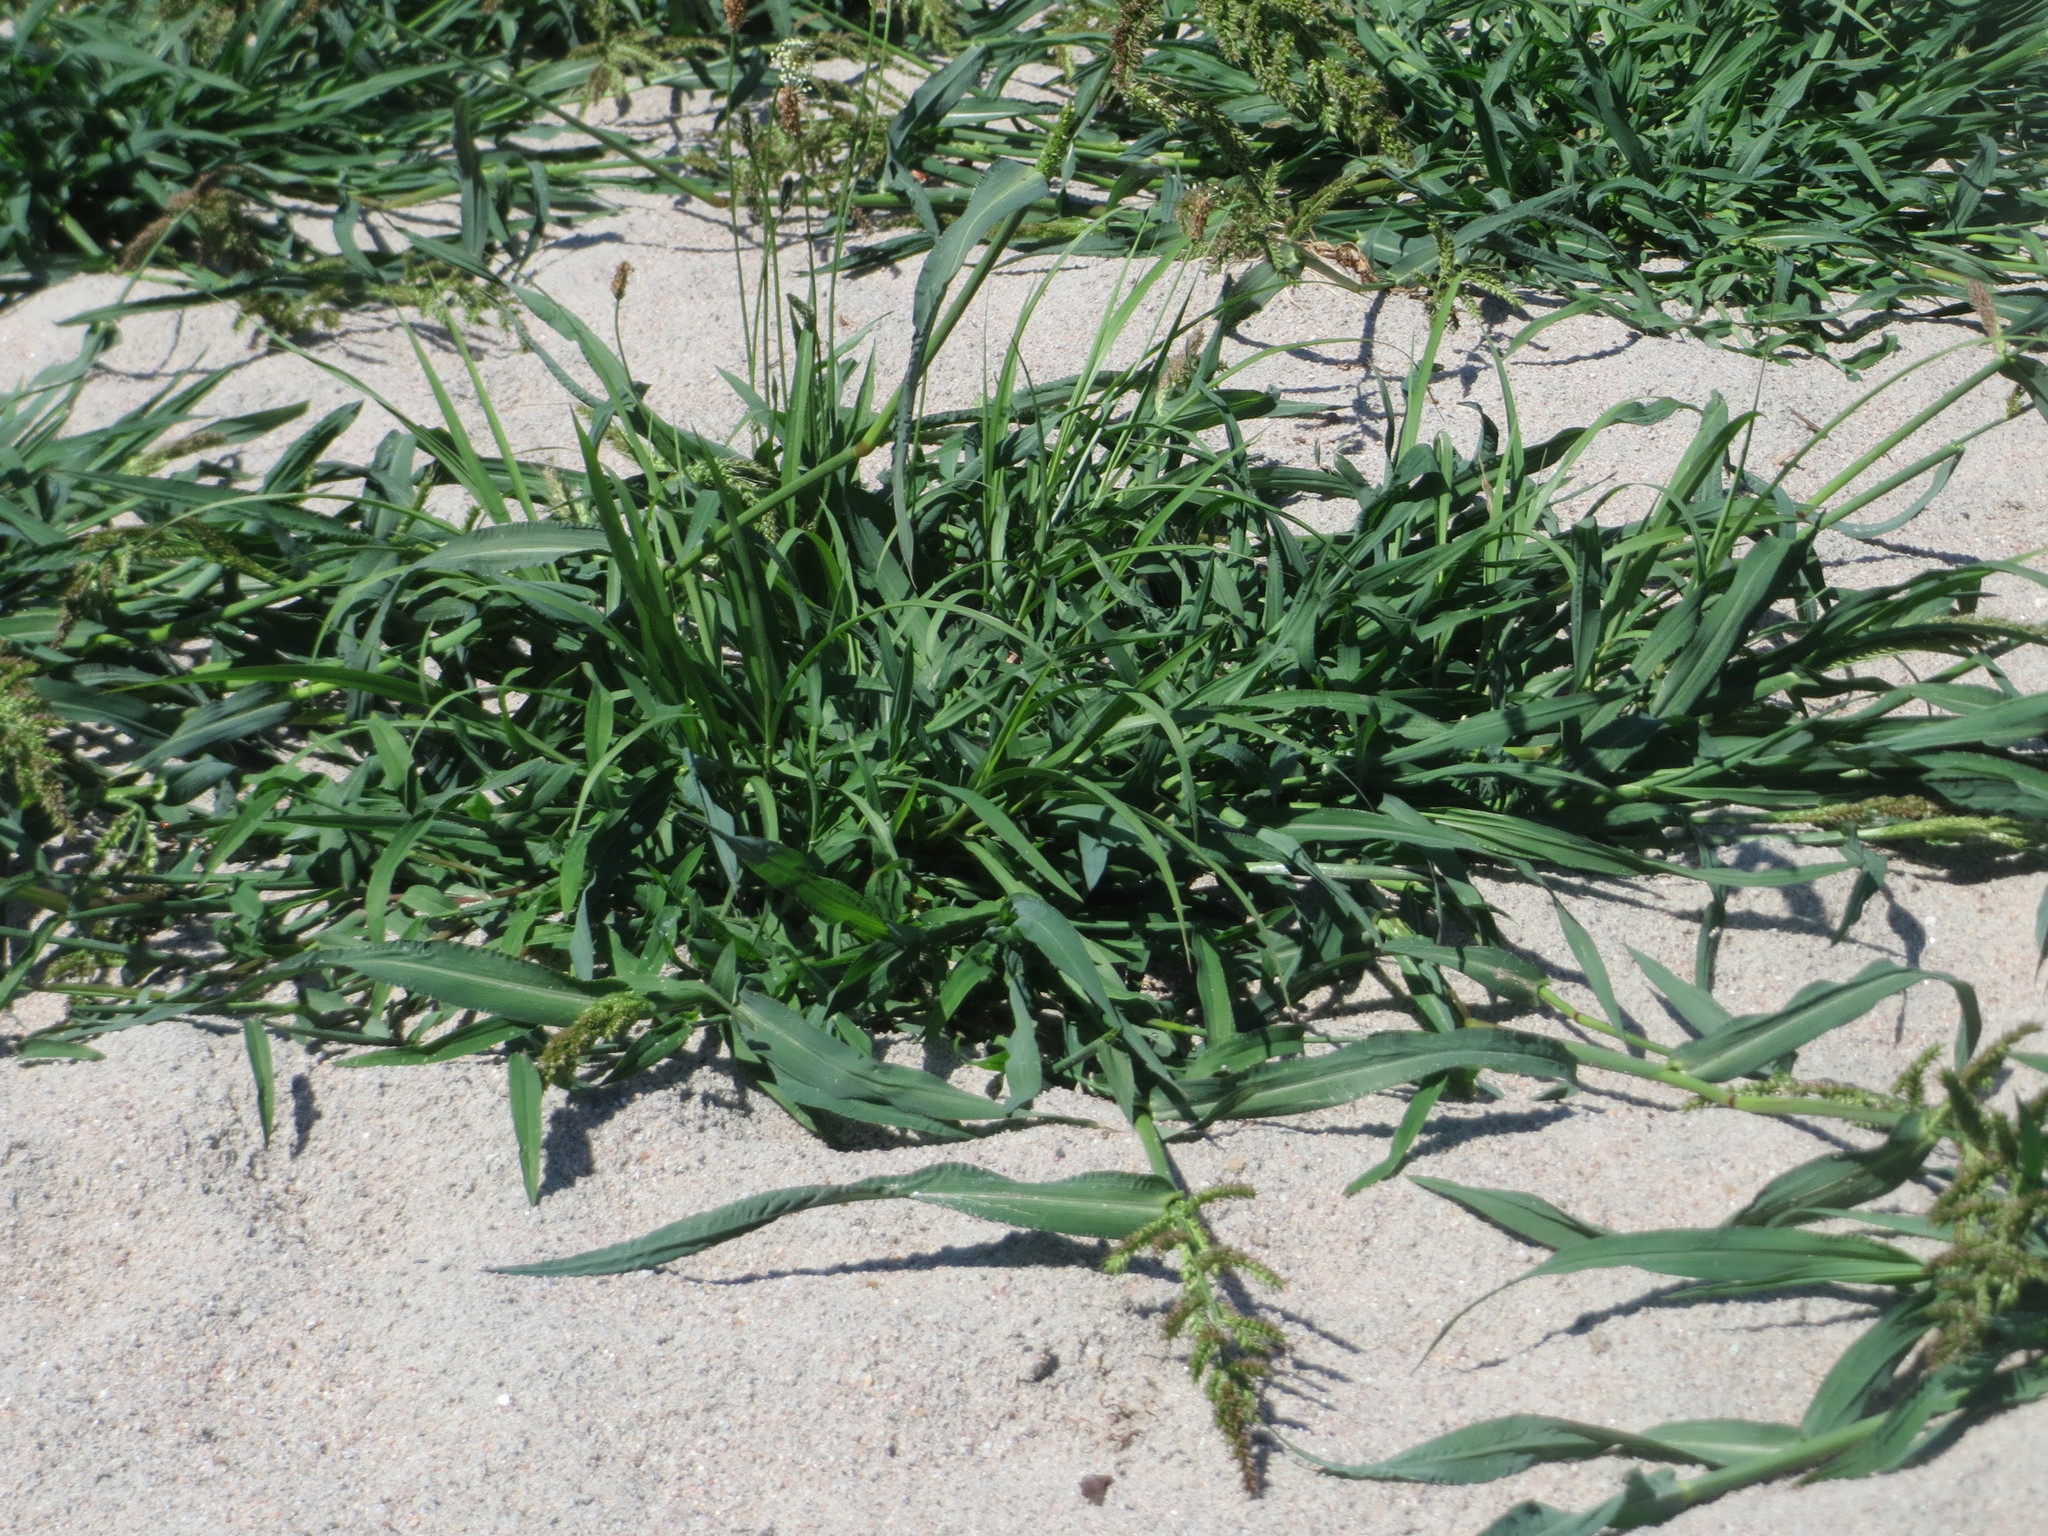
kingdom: Plantae
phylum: Tracheophyta
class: Liliopsida
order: Poales
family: Poaceae
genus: Echinochloa
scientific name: Echinochloa crus-galli
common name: Cockspur
